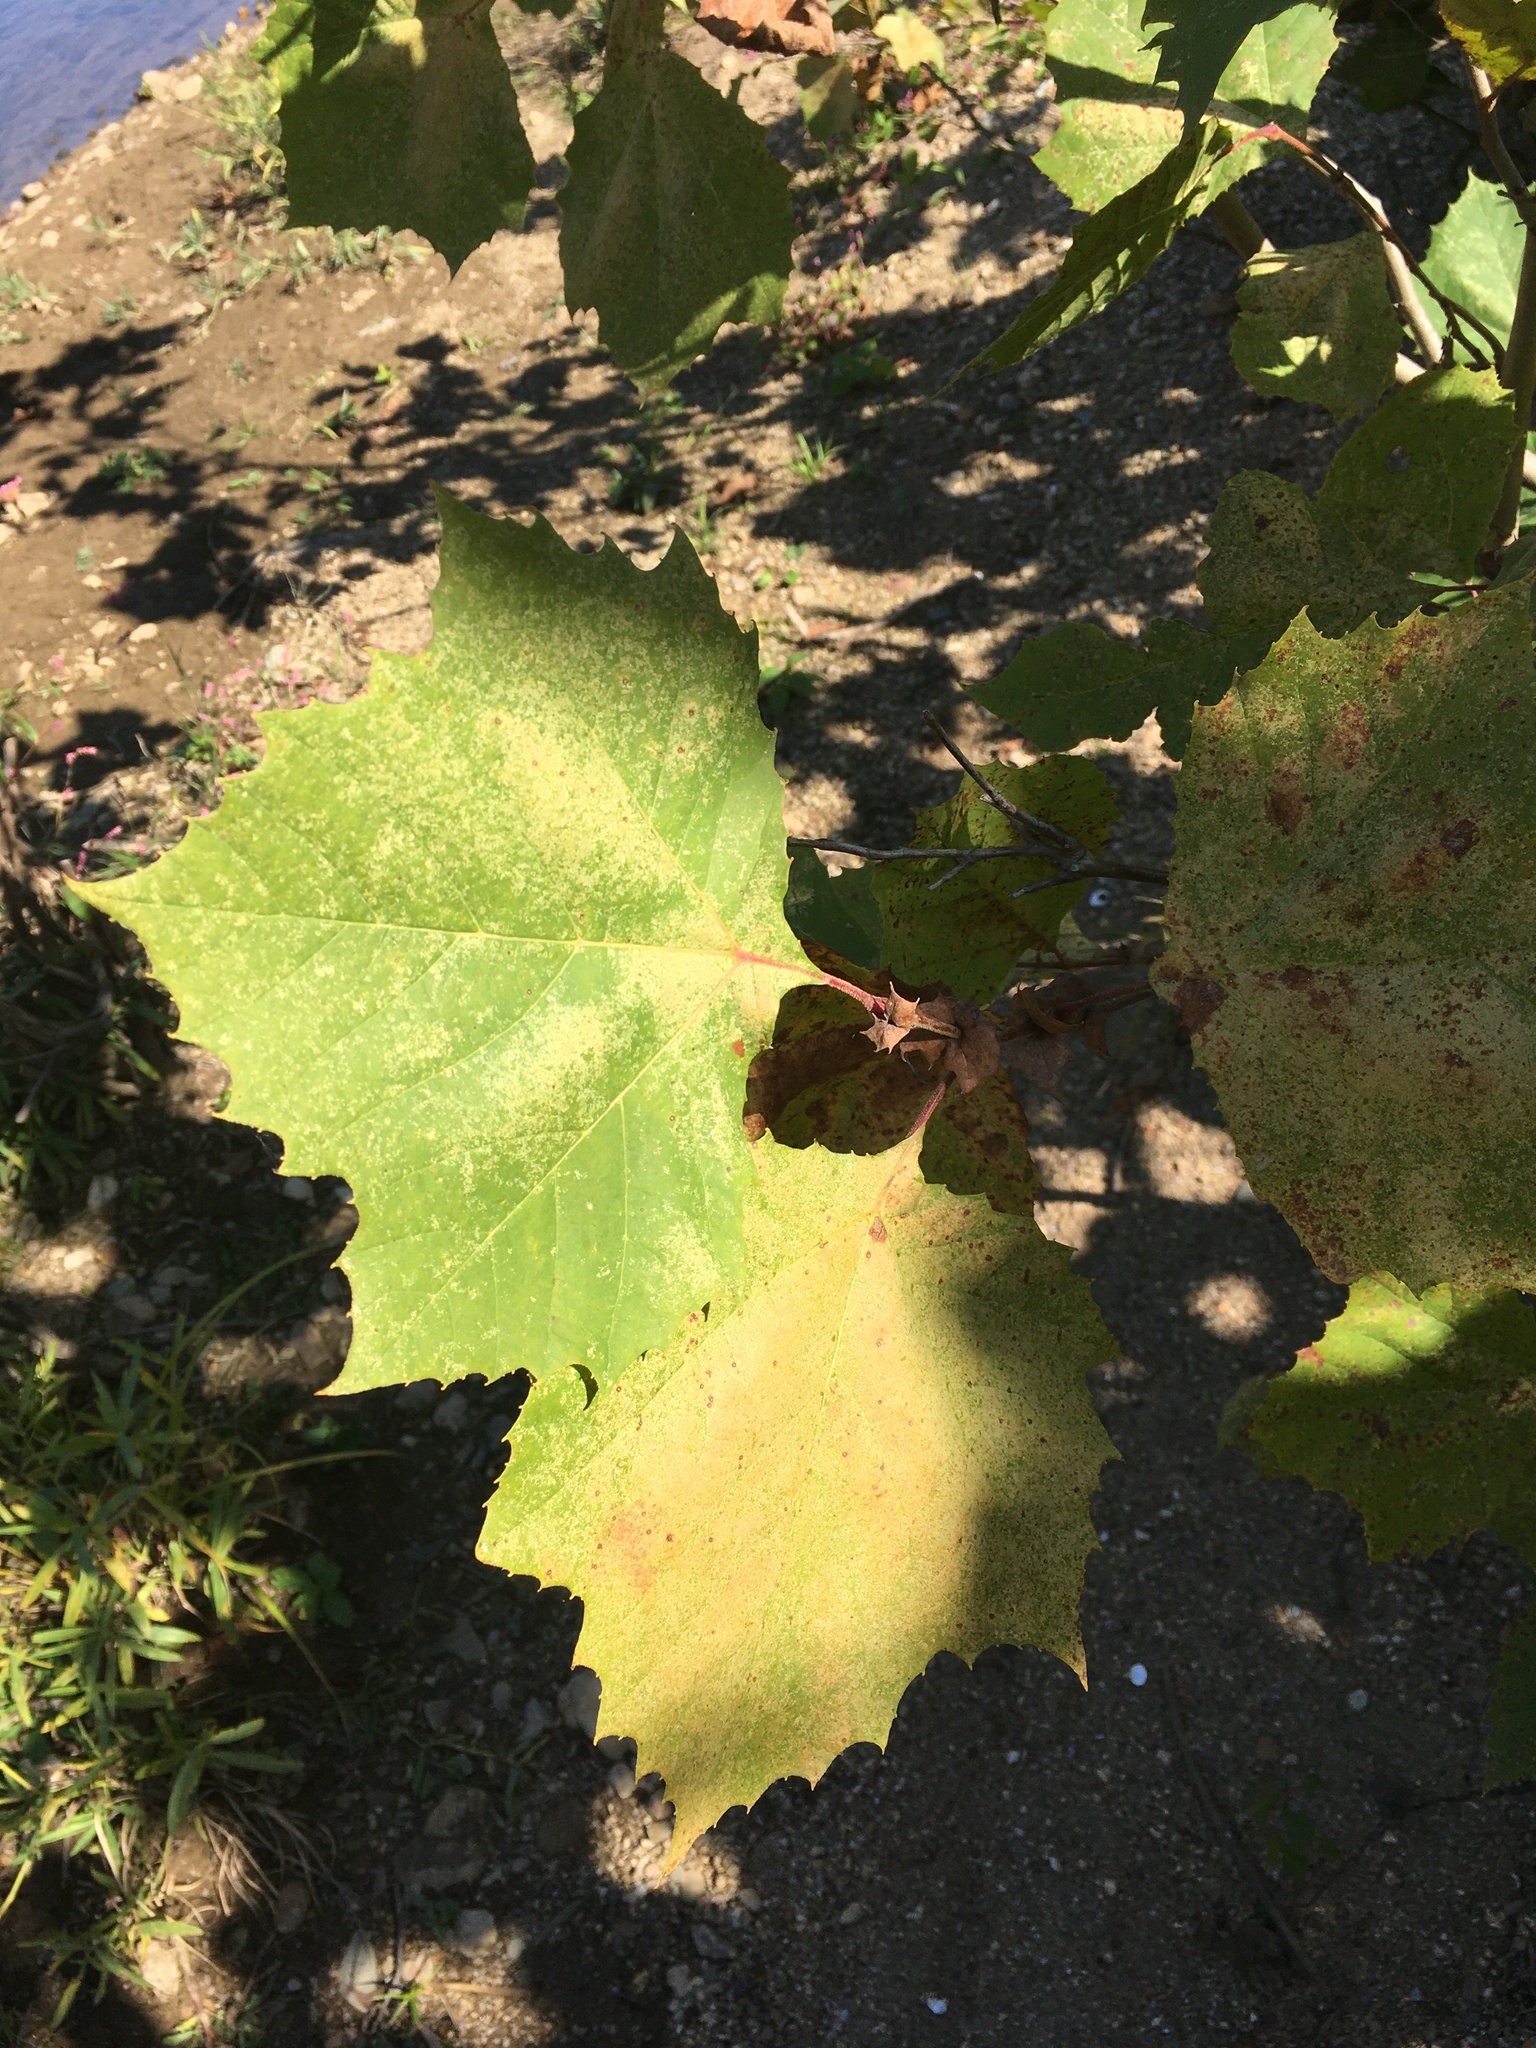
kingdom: Plantae
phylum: Tracheophyta
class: Magnoliopsida
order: Proteales
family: Platanaceae
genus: Platanus
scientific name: Platanus occidentalis
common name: American sycamore
